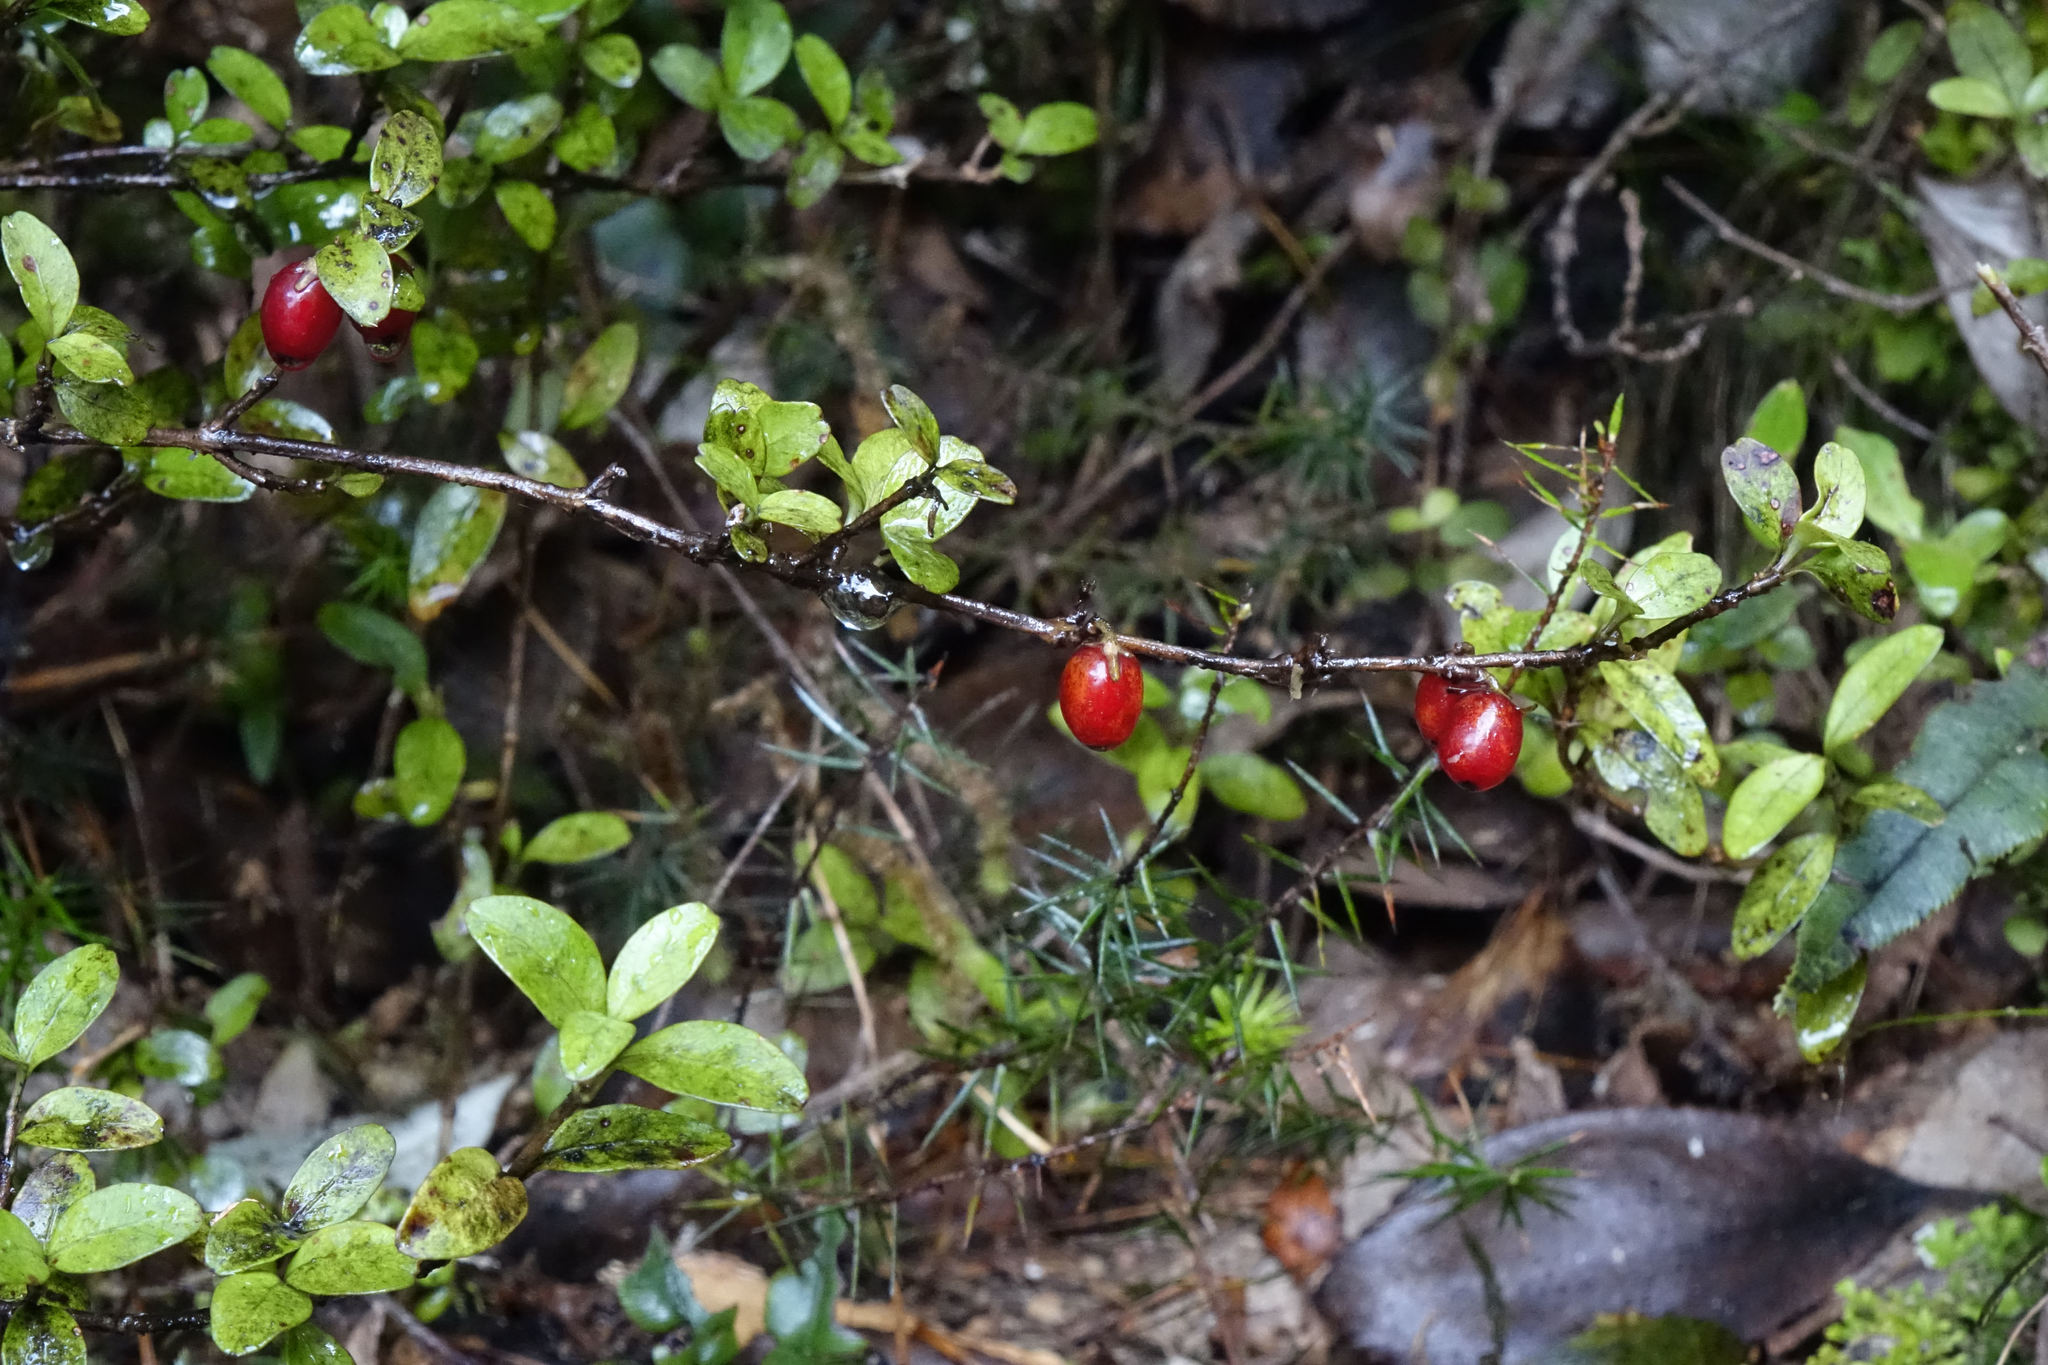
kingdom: Plantae
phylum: Tracheophyta
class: Magnoliopsida
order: Gentianales
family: Rubiaceae
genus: Coprosma
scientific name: Coprosma colensoi
